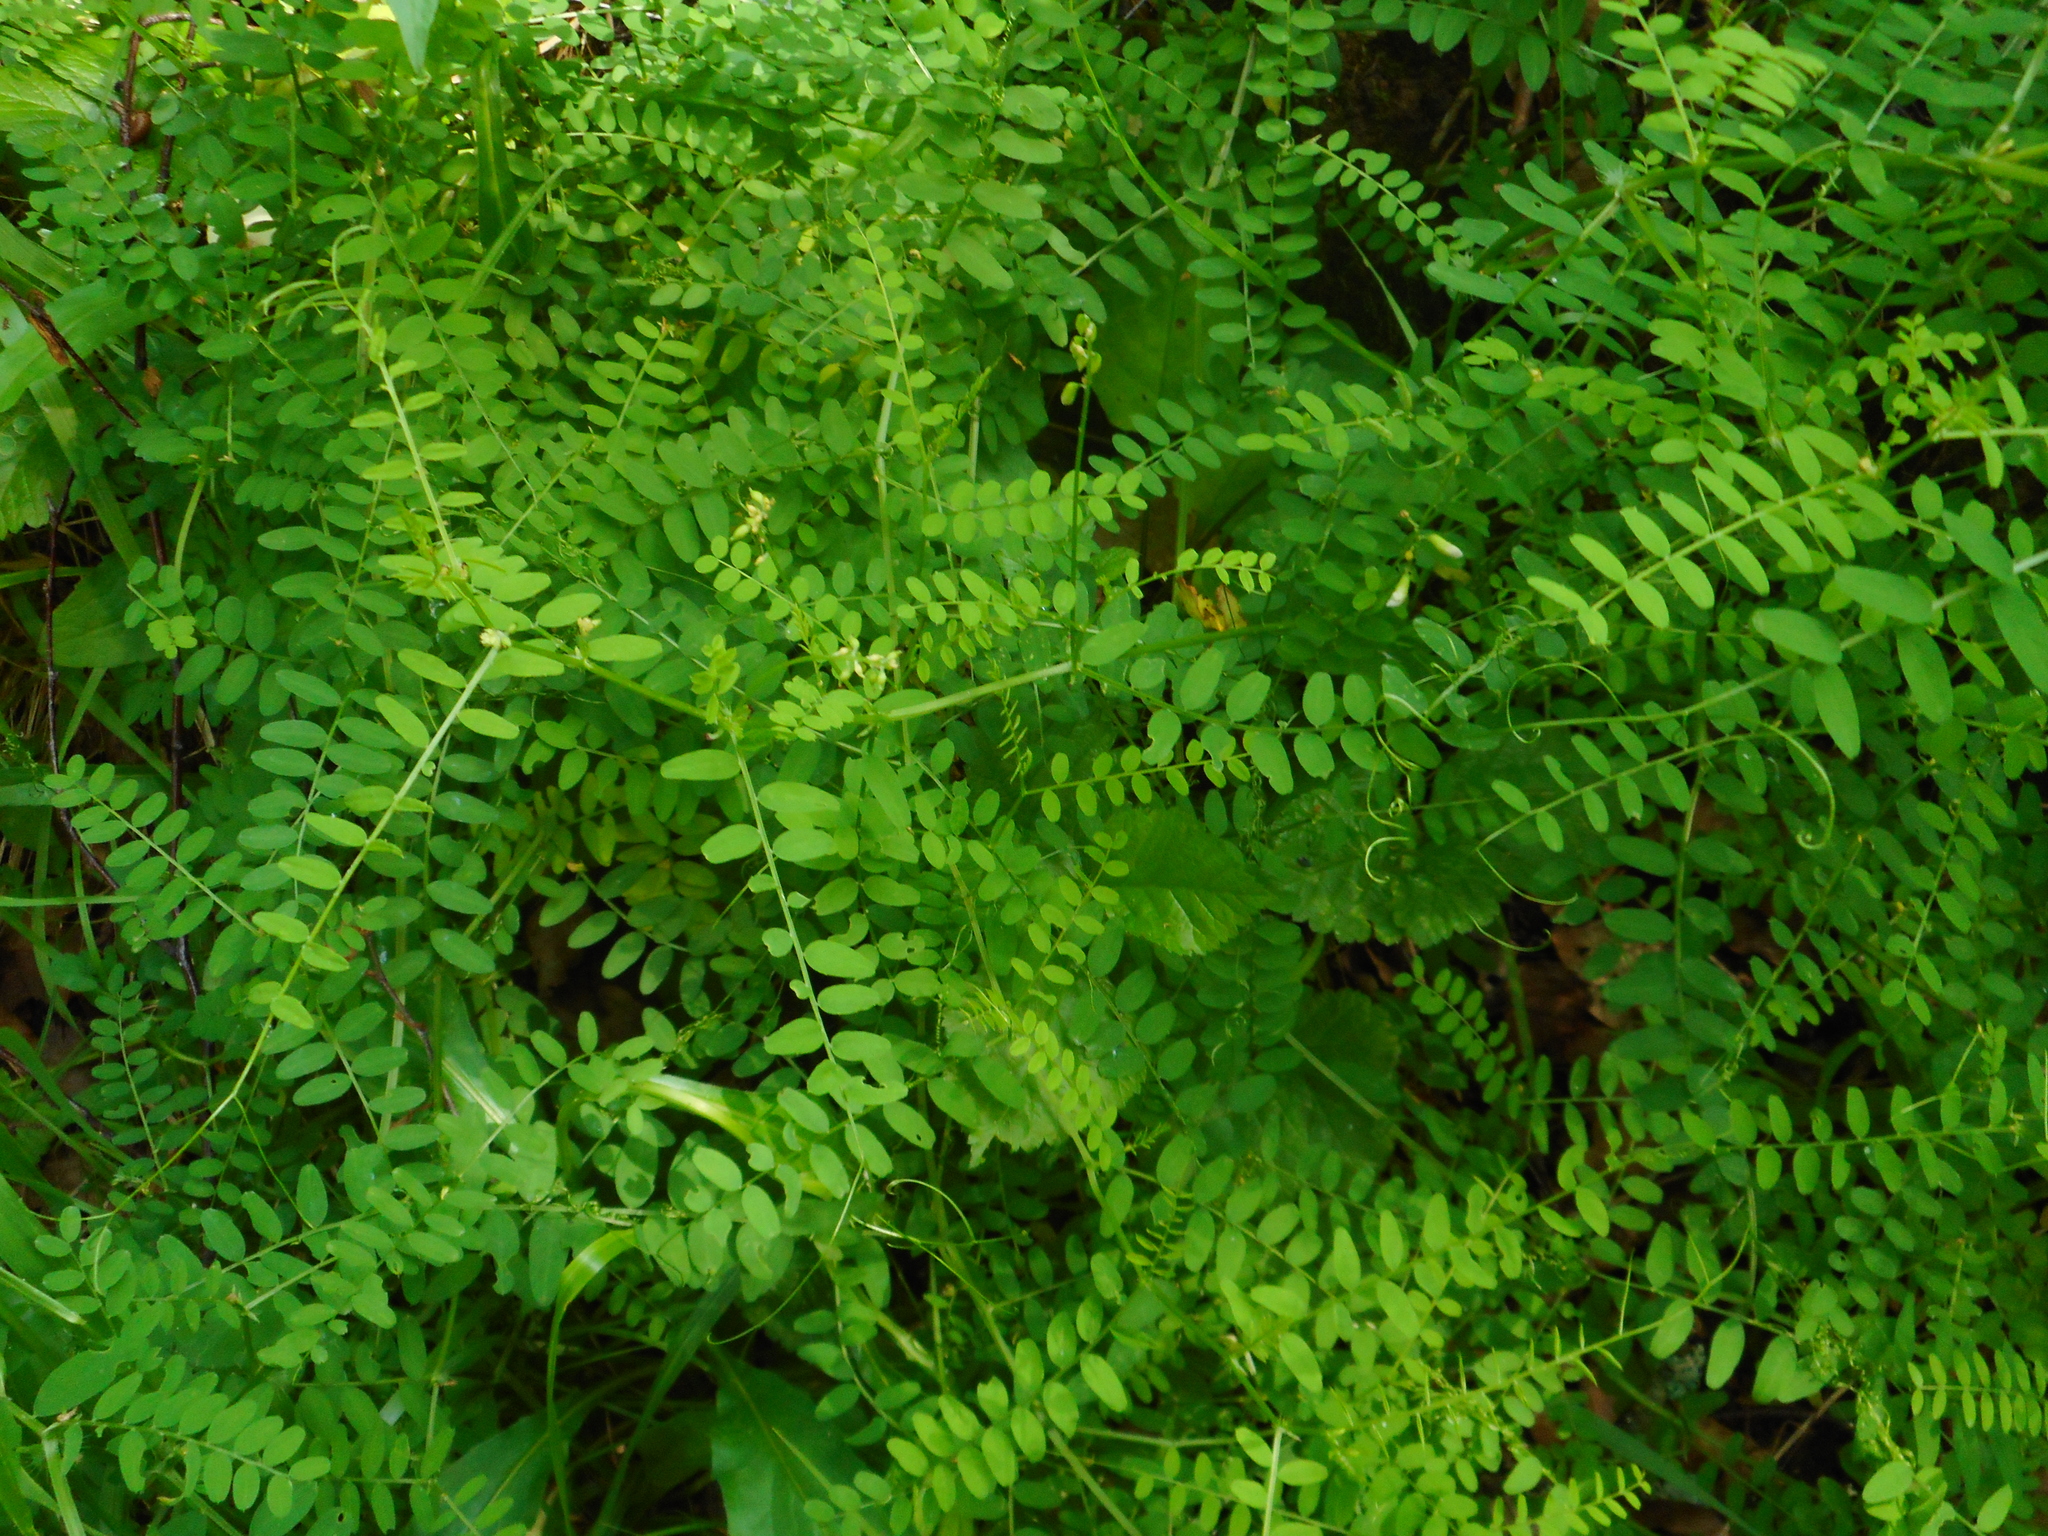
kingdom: Plantae
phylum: Tracheophyta
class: Magnoliopsida
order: Fabales
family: Fabaceae
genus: Vicia
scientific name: Vicia sylvatica
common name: Wood vetch
